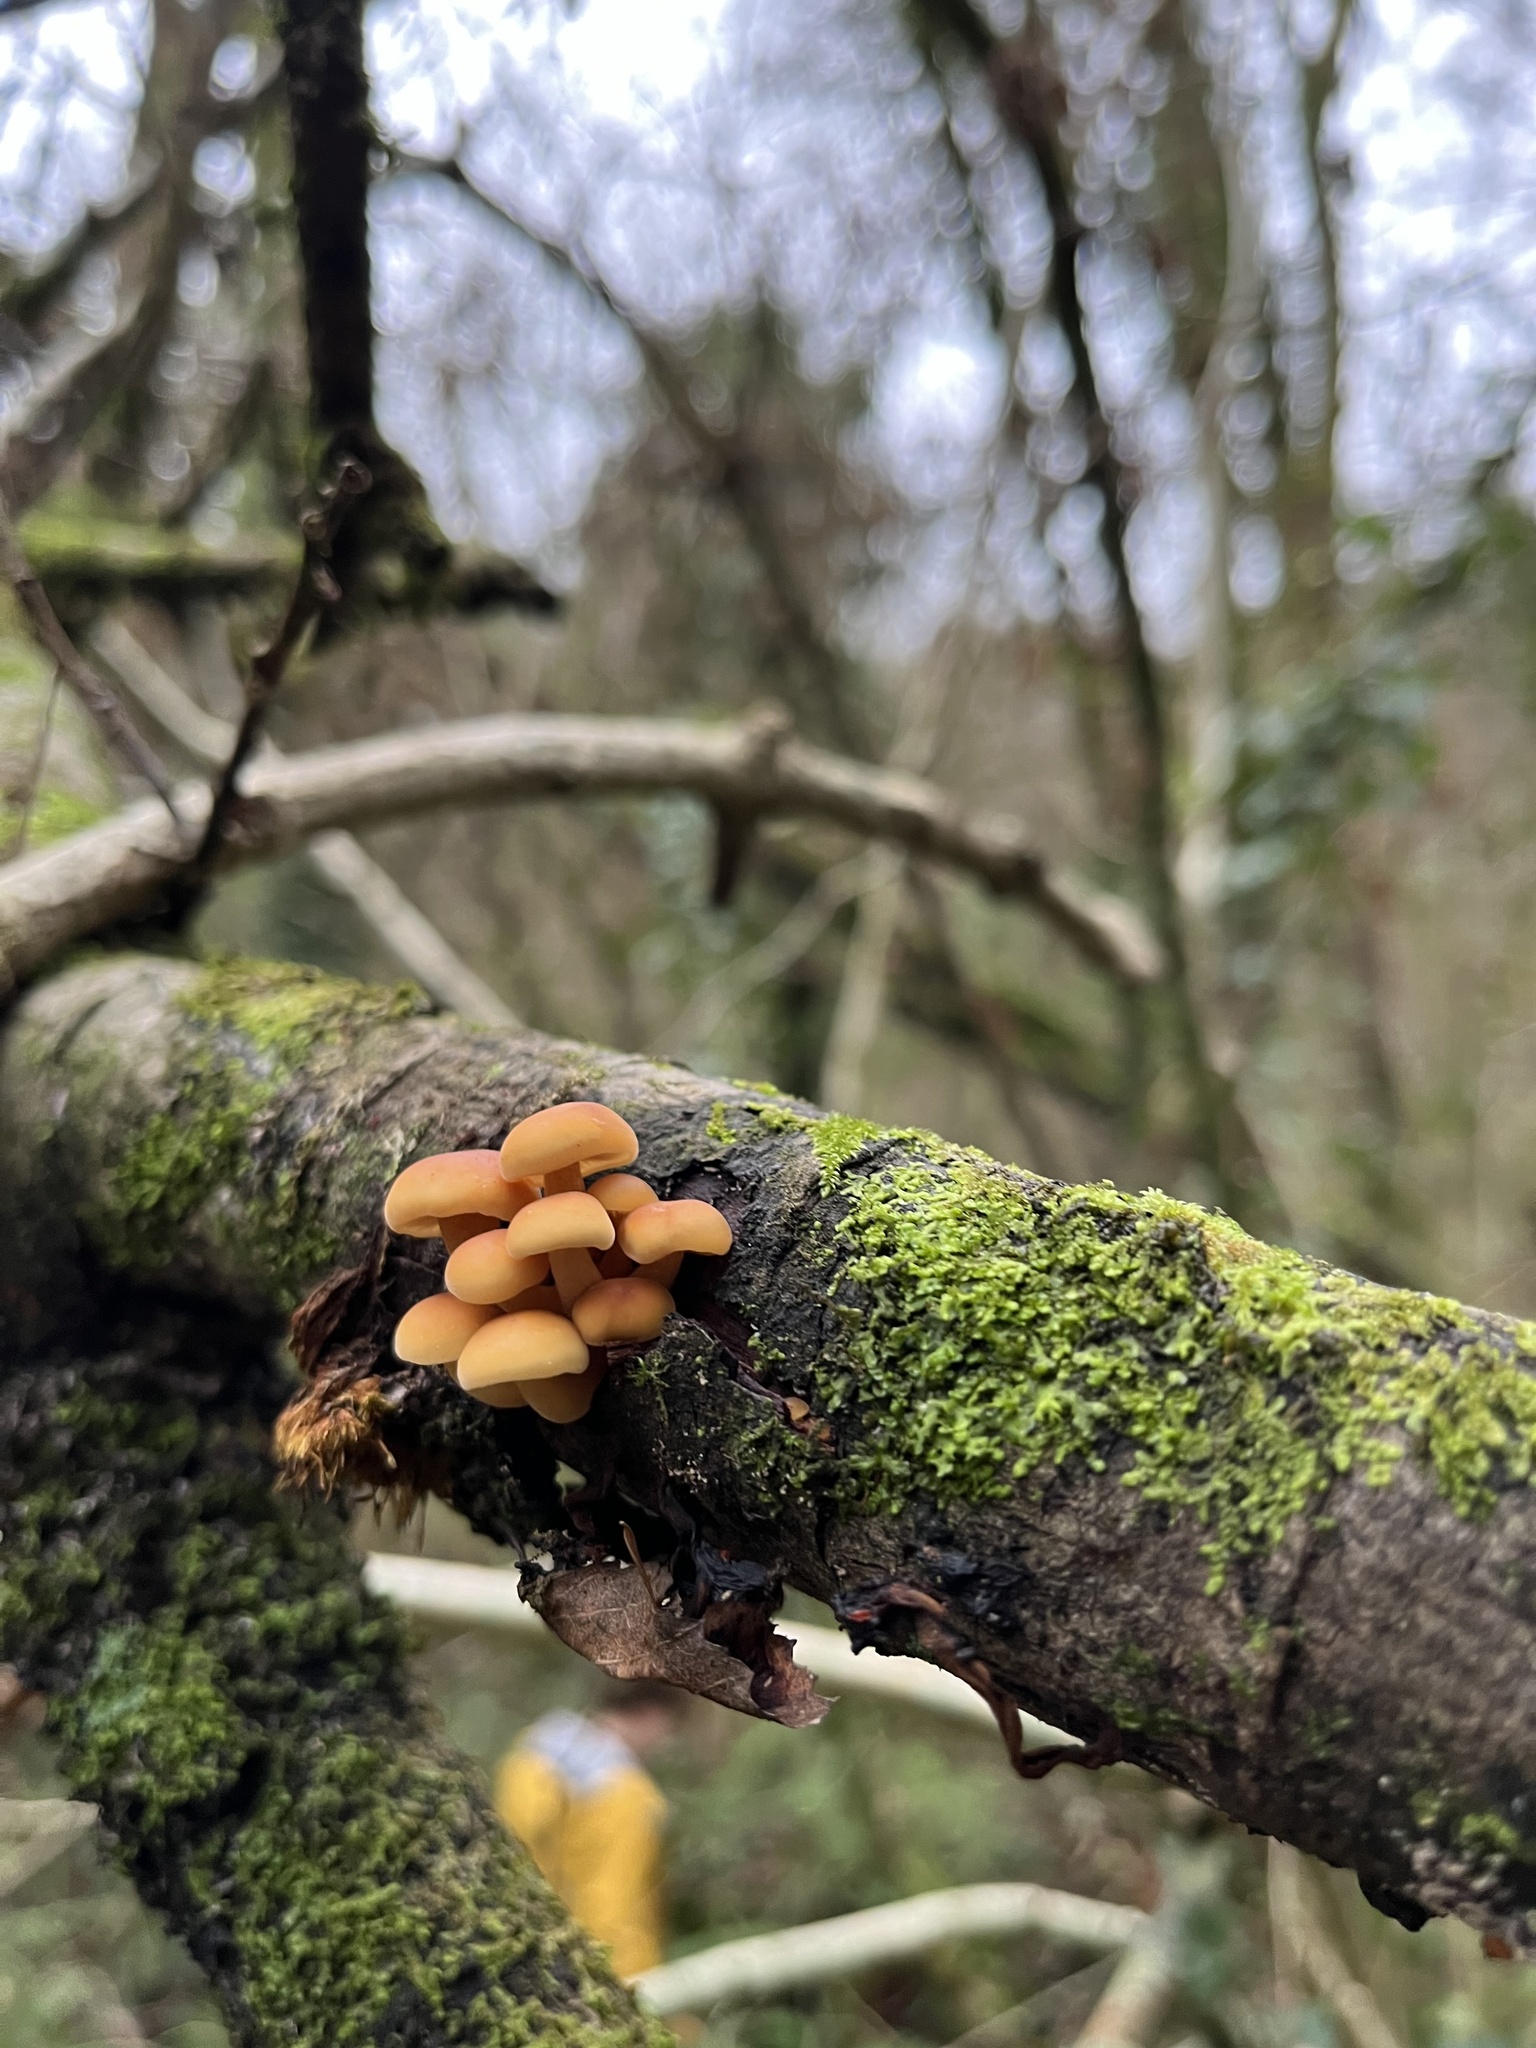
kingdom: Fungi
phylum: Basidiomycota
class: Agaricomycetes
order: Agaricales
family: Physalacriaceae
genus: Flammulina
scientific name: Flammulina
